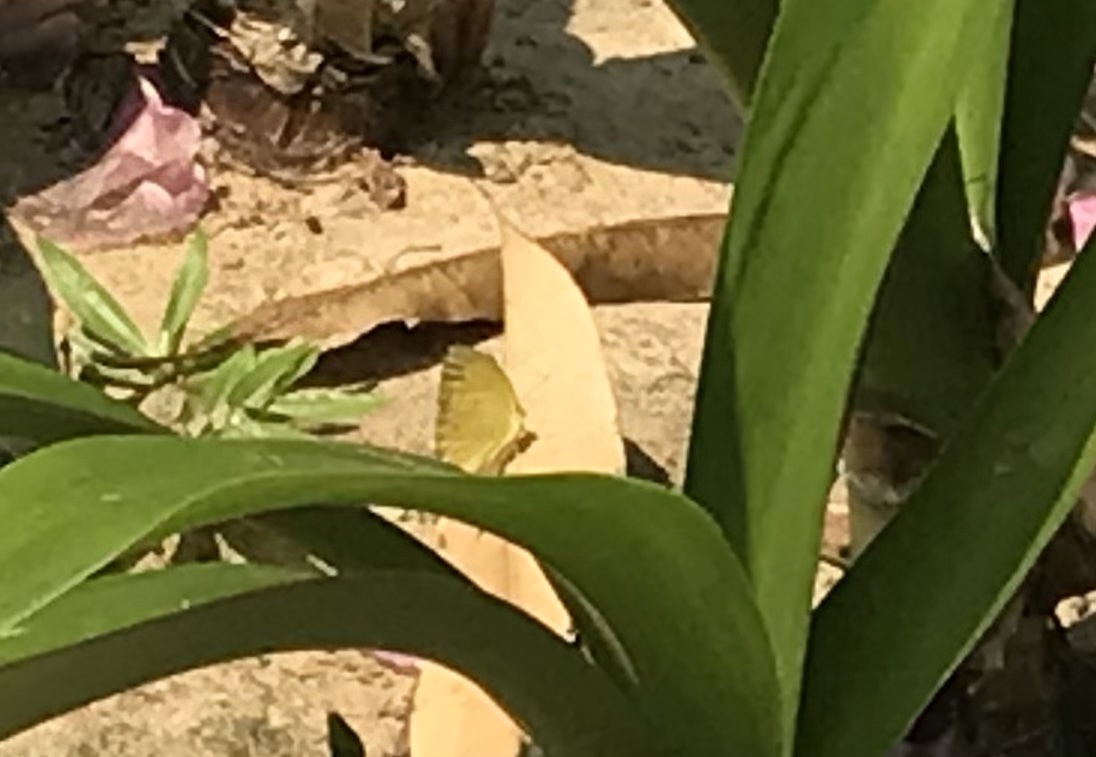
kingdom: Animalia
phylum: Arthropoda
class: Insecta
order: Lepidoptera
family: Pieridae
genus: Eurema
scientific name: Eurema andersoni
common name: One-spot yellow grass
